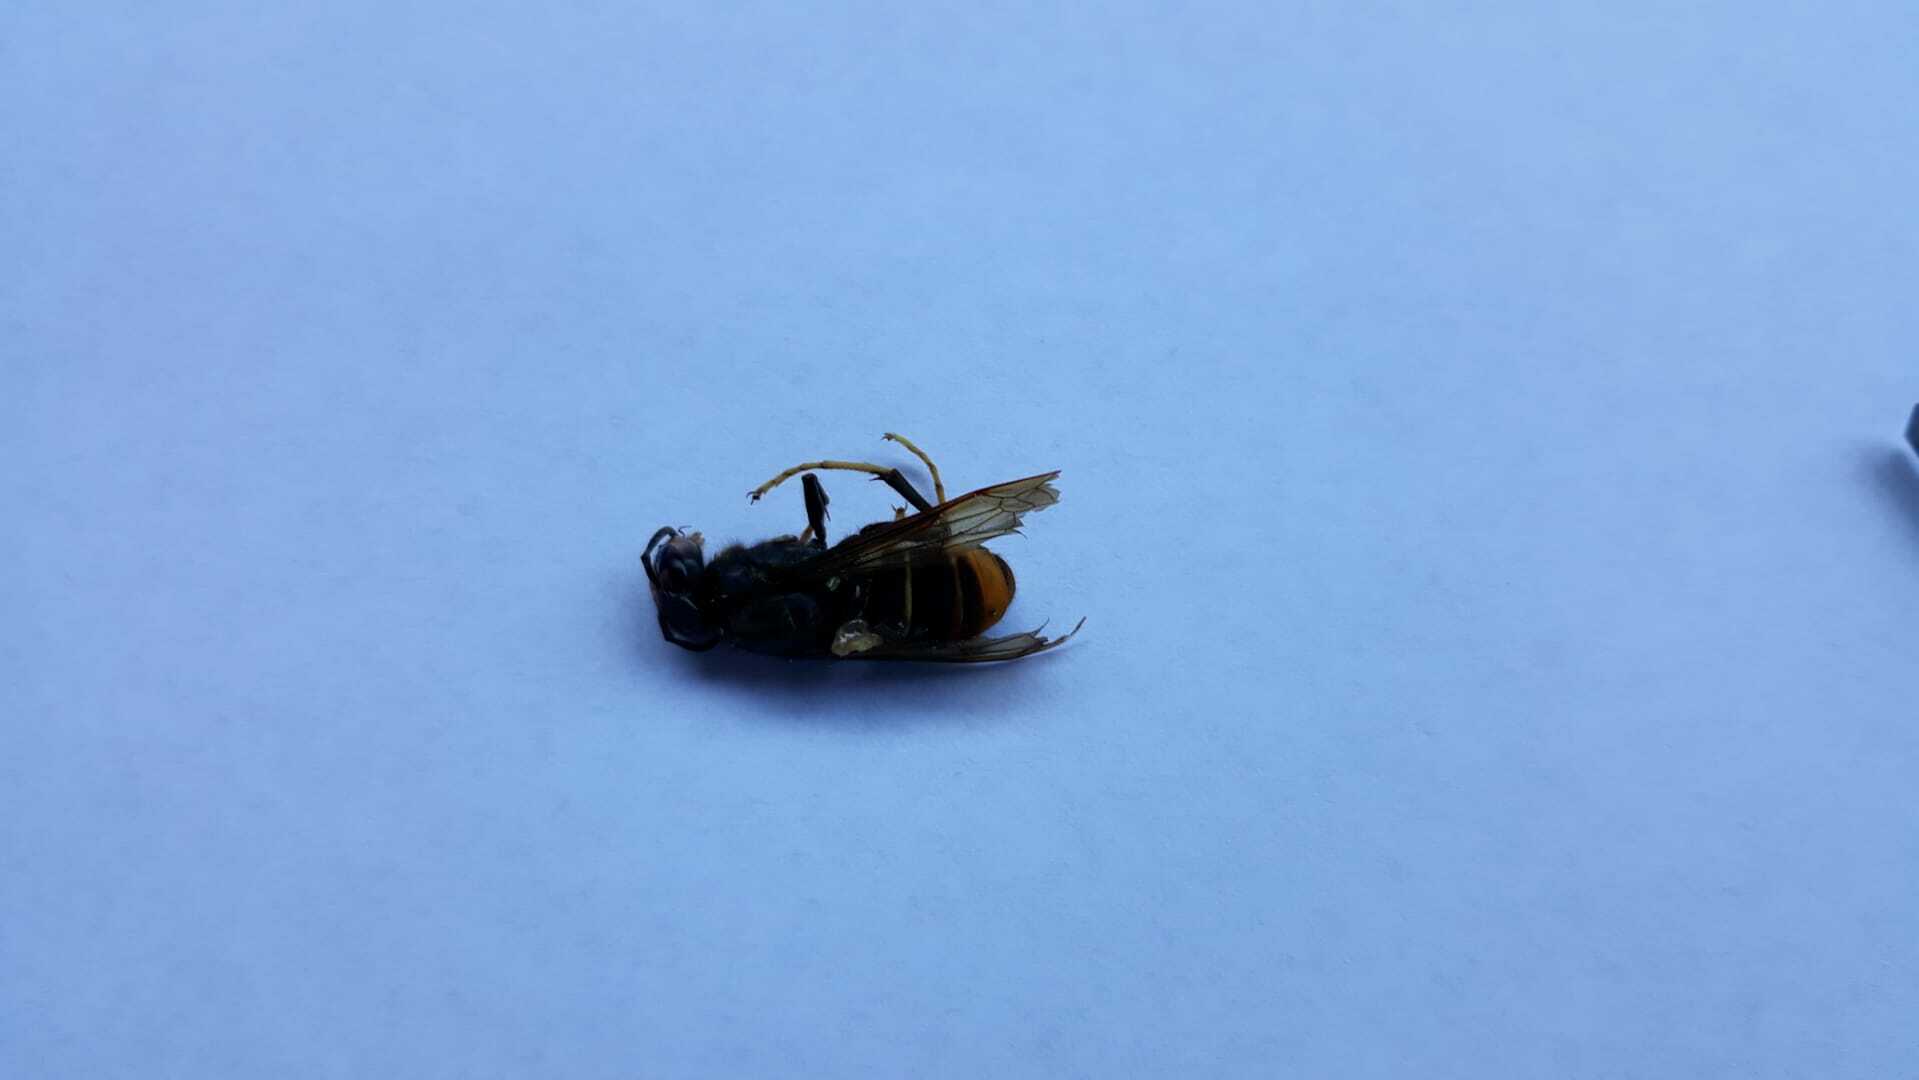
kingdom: Animalia
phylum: Arthropoda
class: Insecta
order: Hymenoptera
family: Vespidae
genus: Vespa
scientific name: Vespa velutina
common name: Asian hornet
